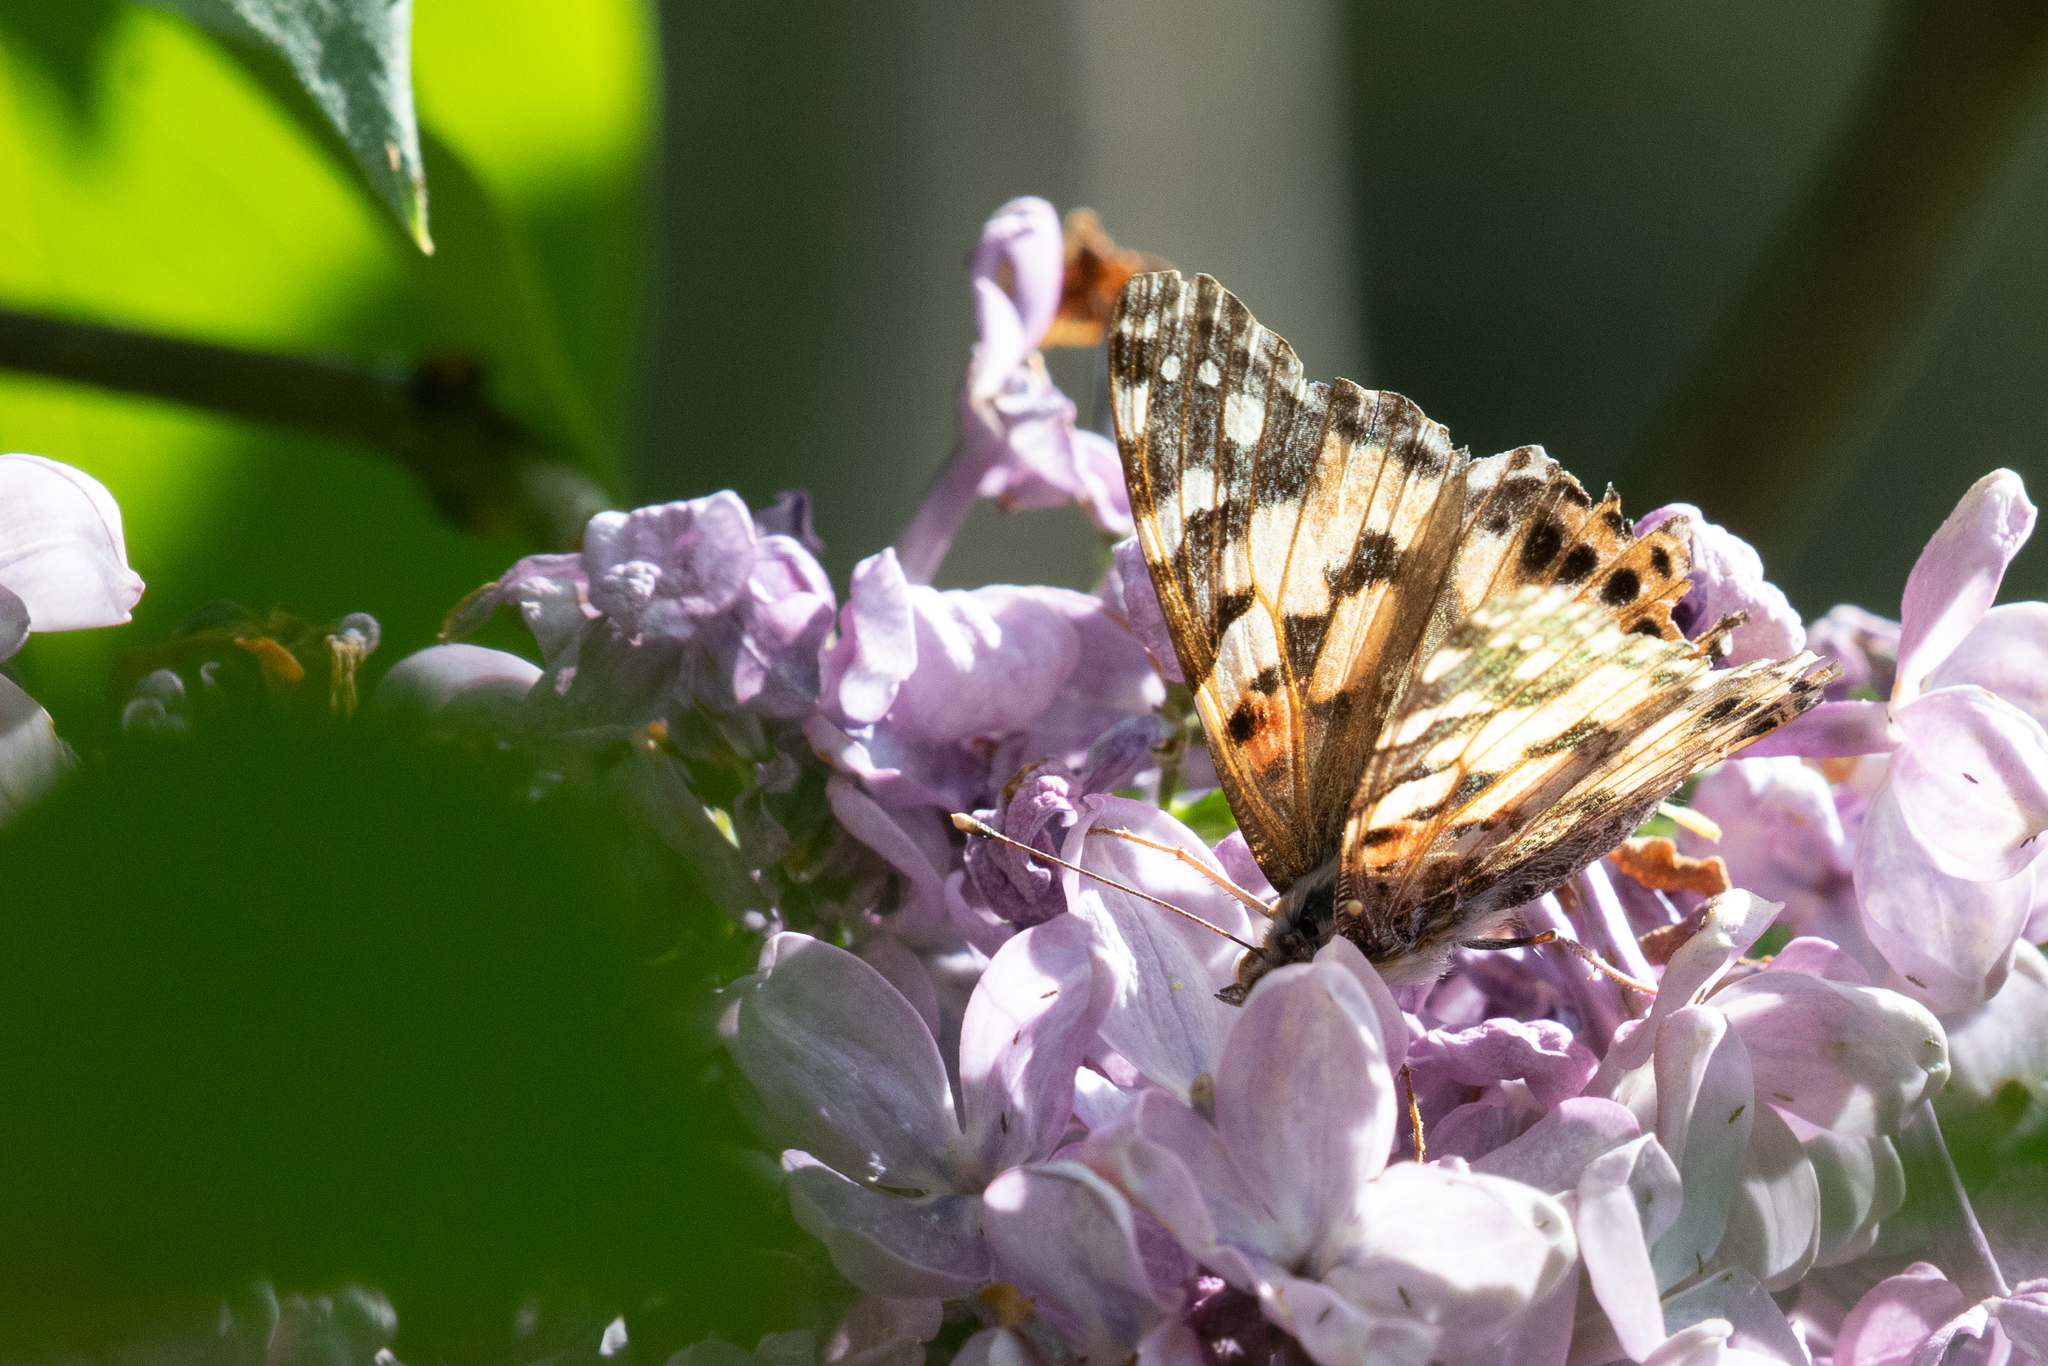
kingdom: Animalia
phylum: Arthropoda
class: Insecta
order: Lepidoptera
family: Nymphalidae
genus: Vanessa
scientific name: Vanessa cardui
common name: Painted lady
